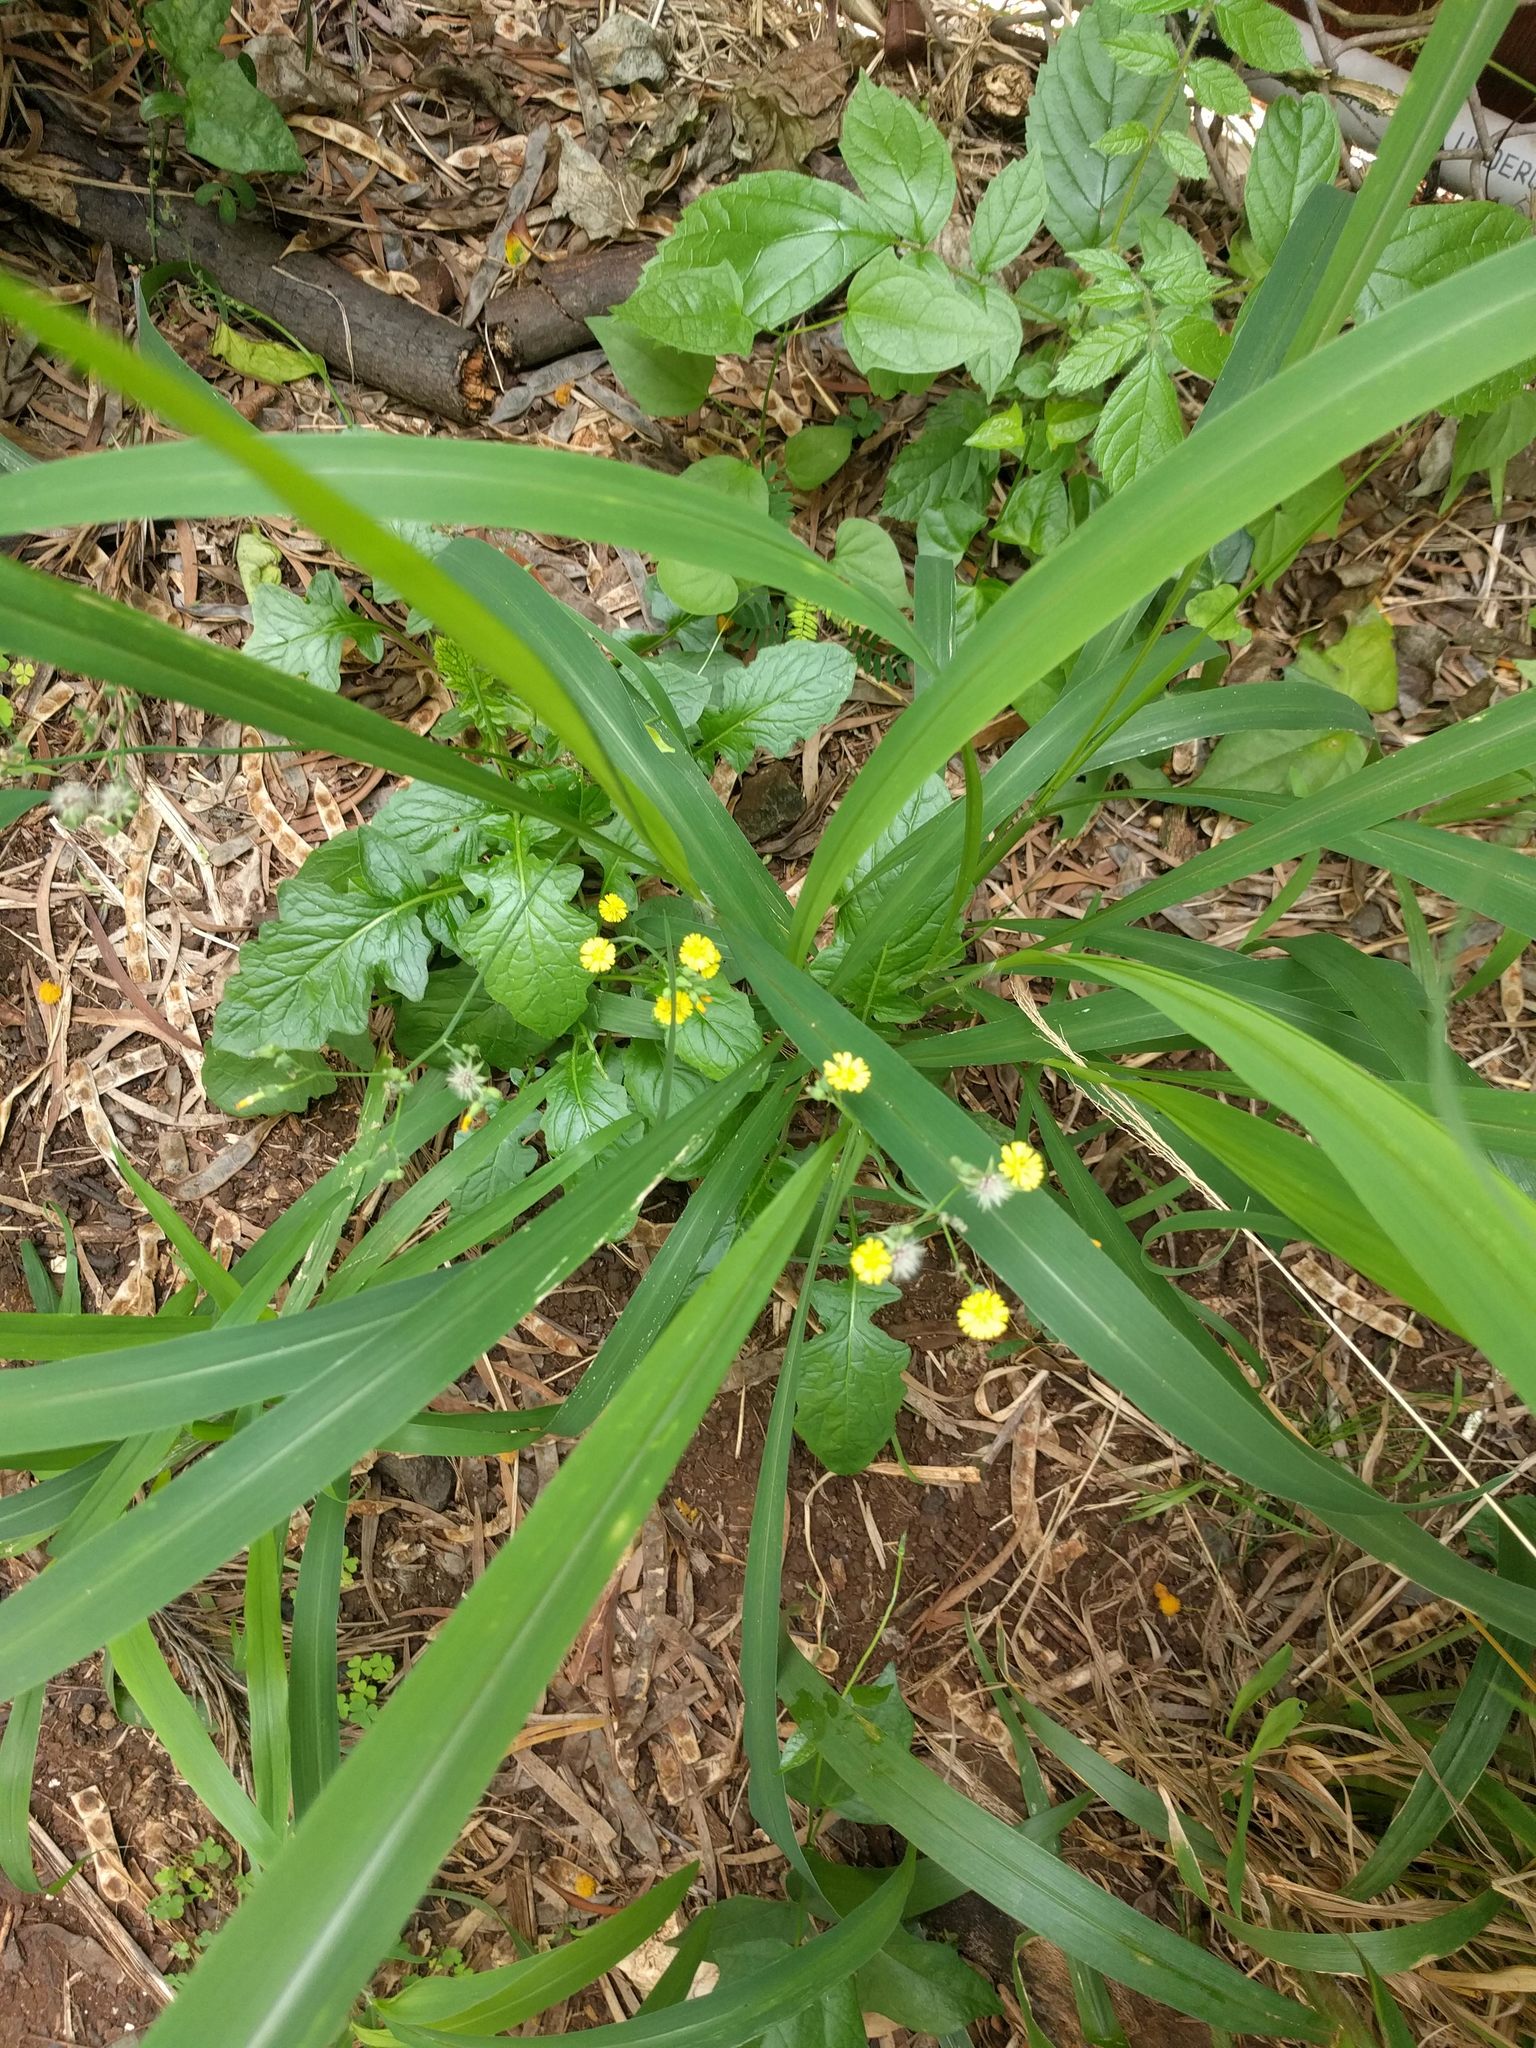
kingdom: Plantae
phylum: Tracheophyta
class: Magnoliopsida
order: Asterales
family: Asteraceae
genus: Youngia
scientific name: Youngia japonica
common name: Oriental false hawksbeard
